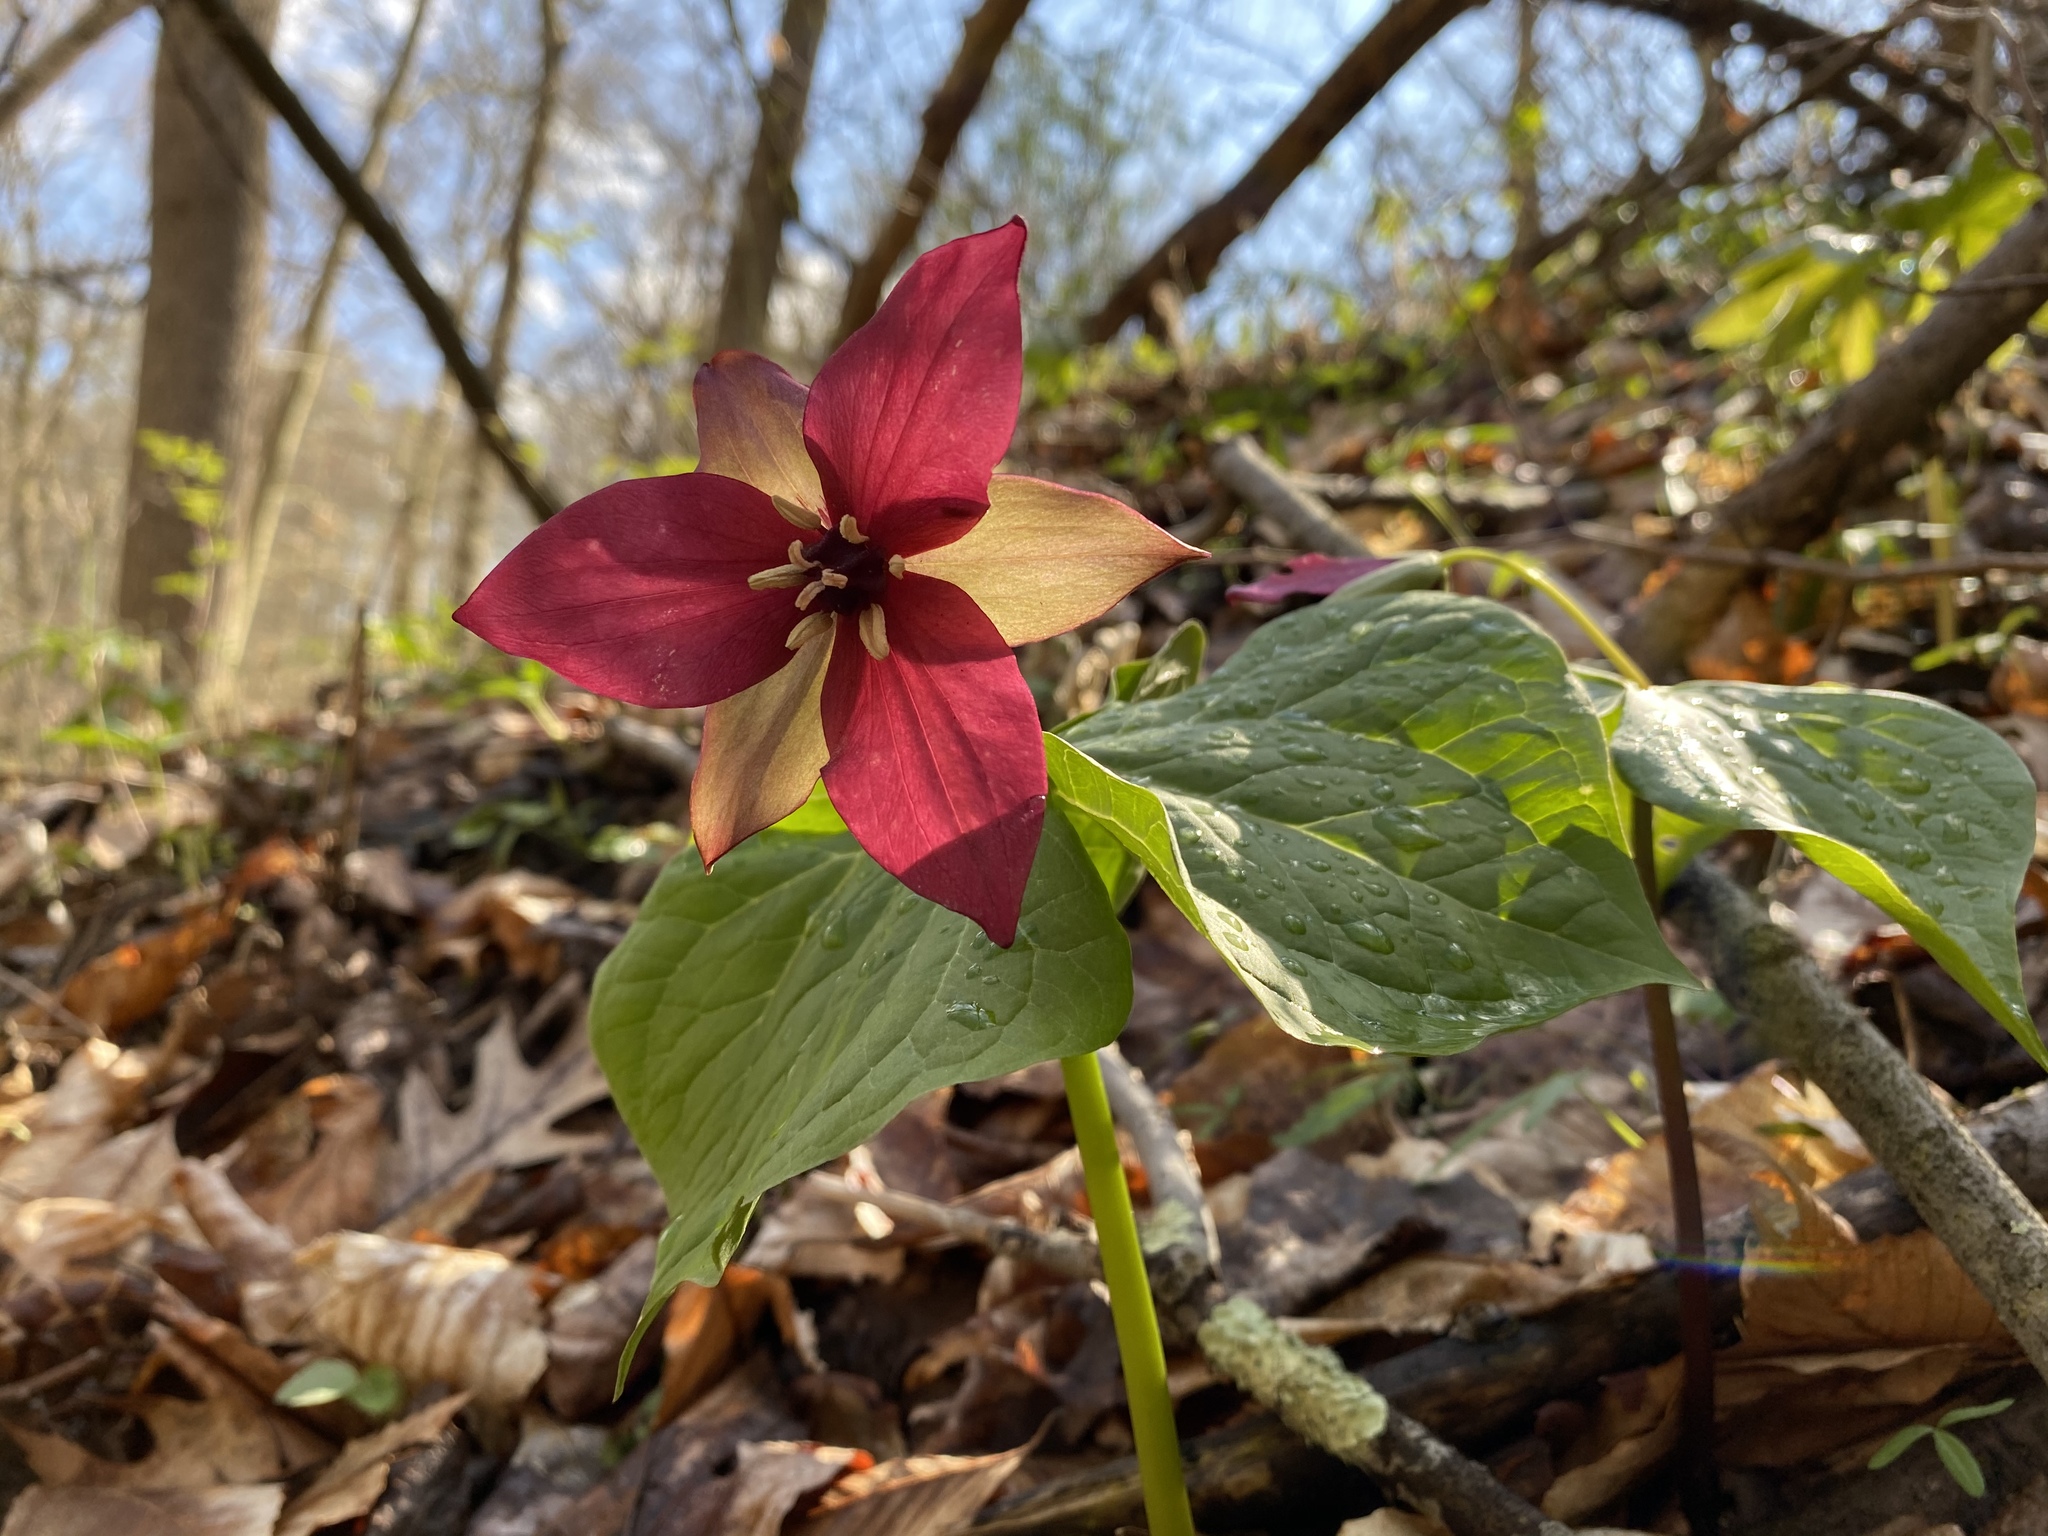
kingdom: Plantae
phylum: Tracheophyta
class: Liliopsida
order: Liliales
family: Melanthiaceae
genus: Trillium
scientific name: Trillium erectum
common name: Purple trillium
